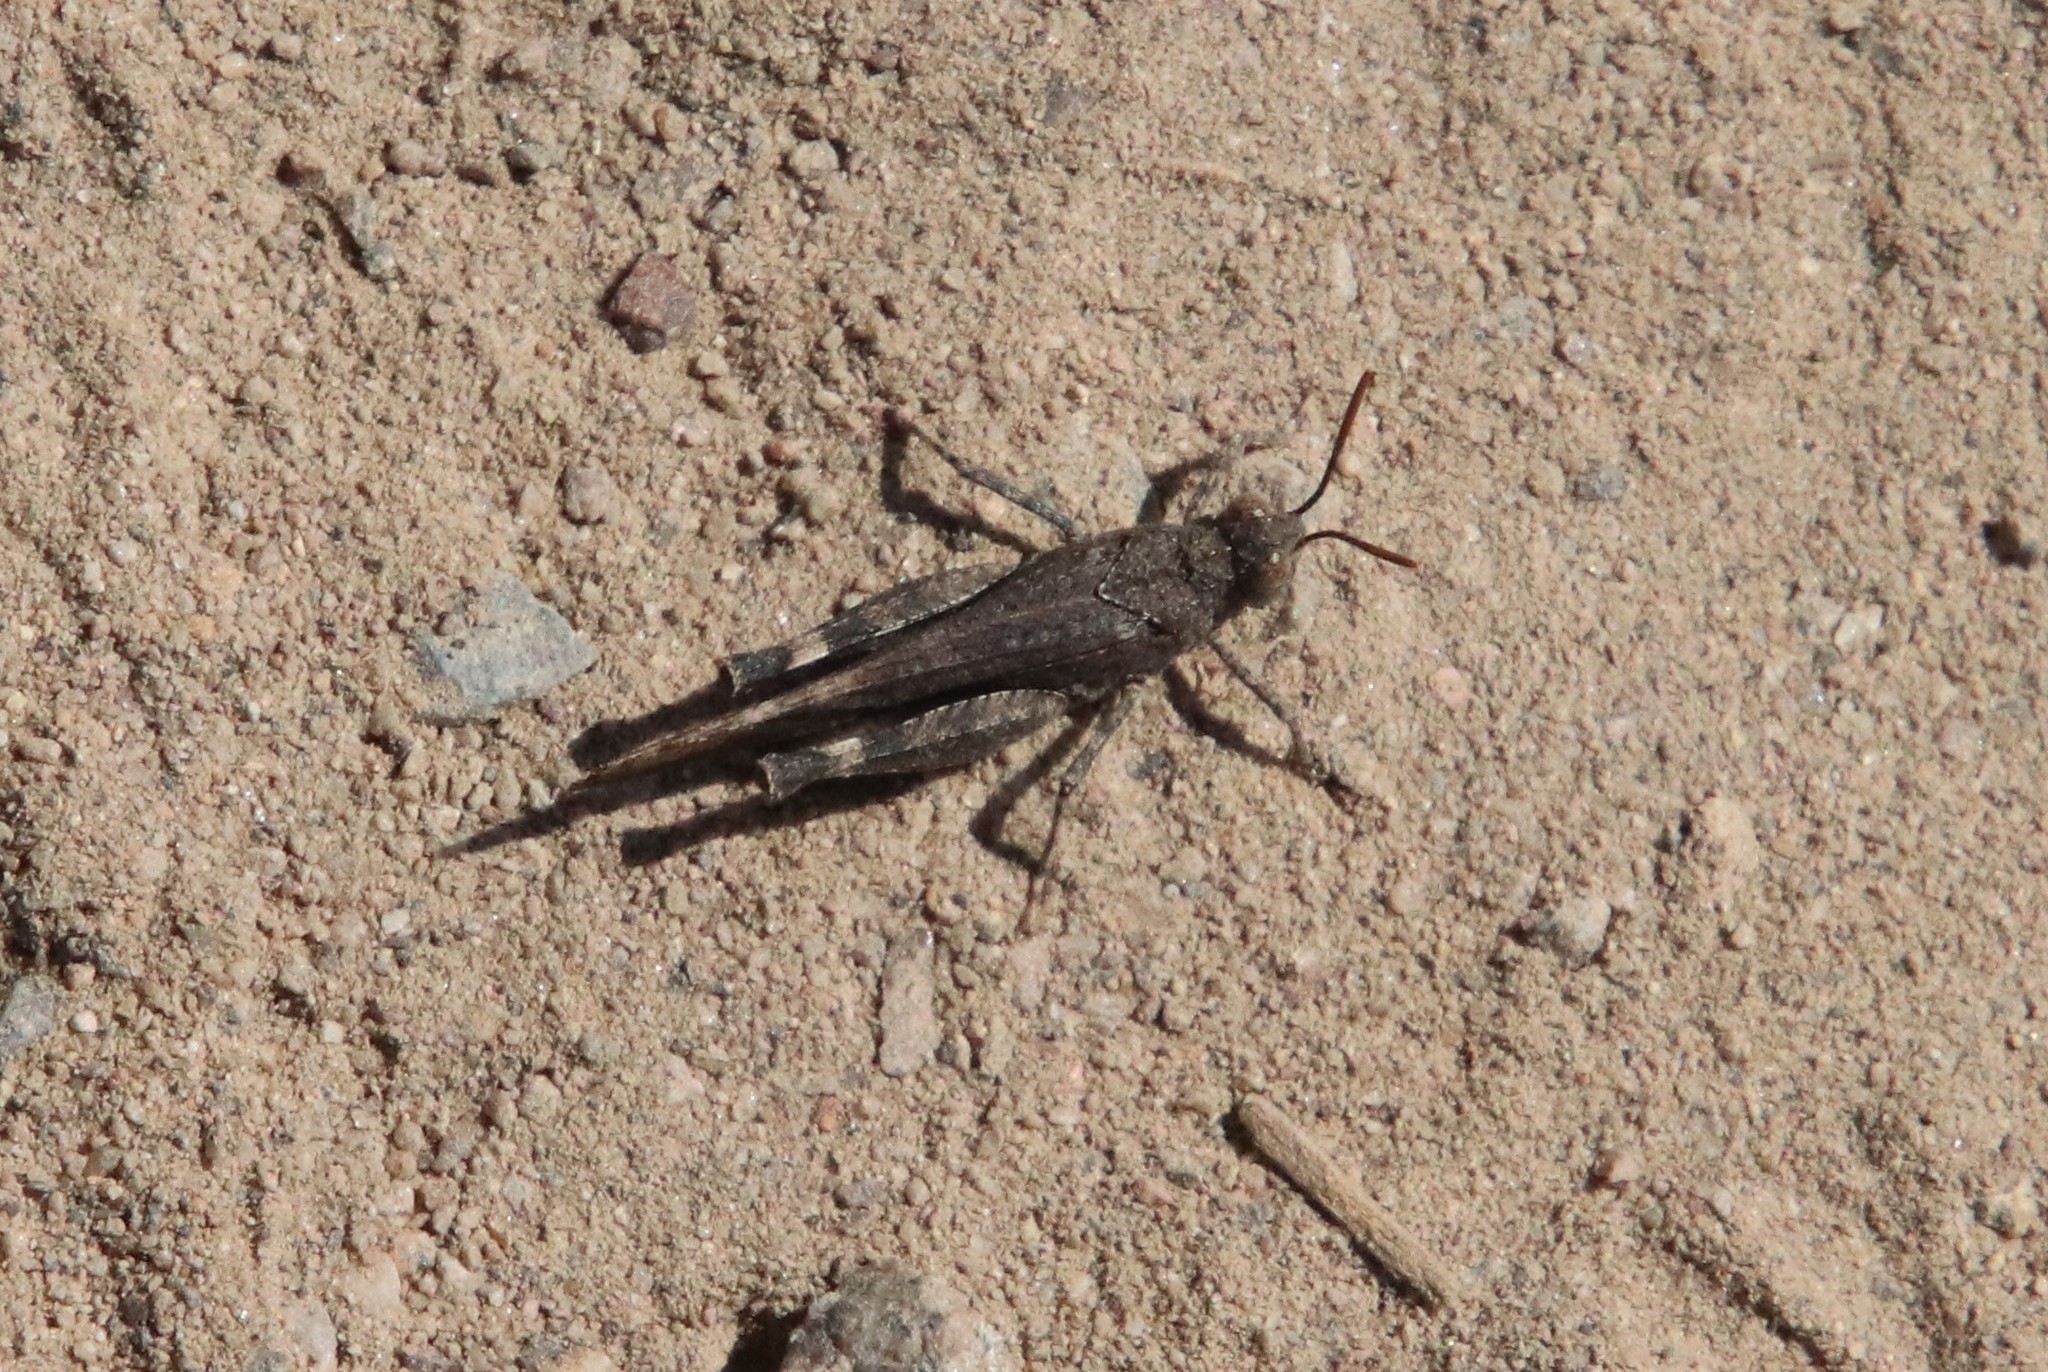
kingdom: Animalia
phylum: Arthropoda
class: Insecta
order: Orthoptera
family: Acrididae
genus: Lactista
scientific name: Lactista gibbosus
